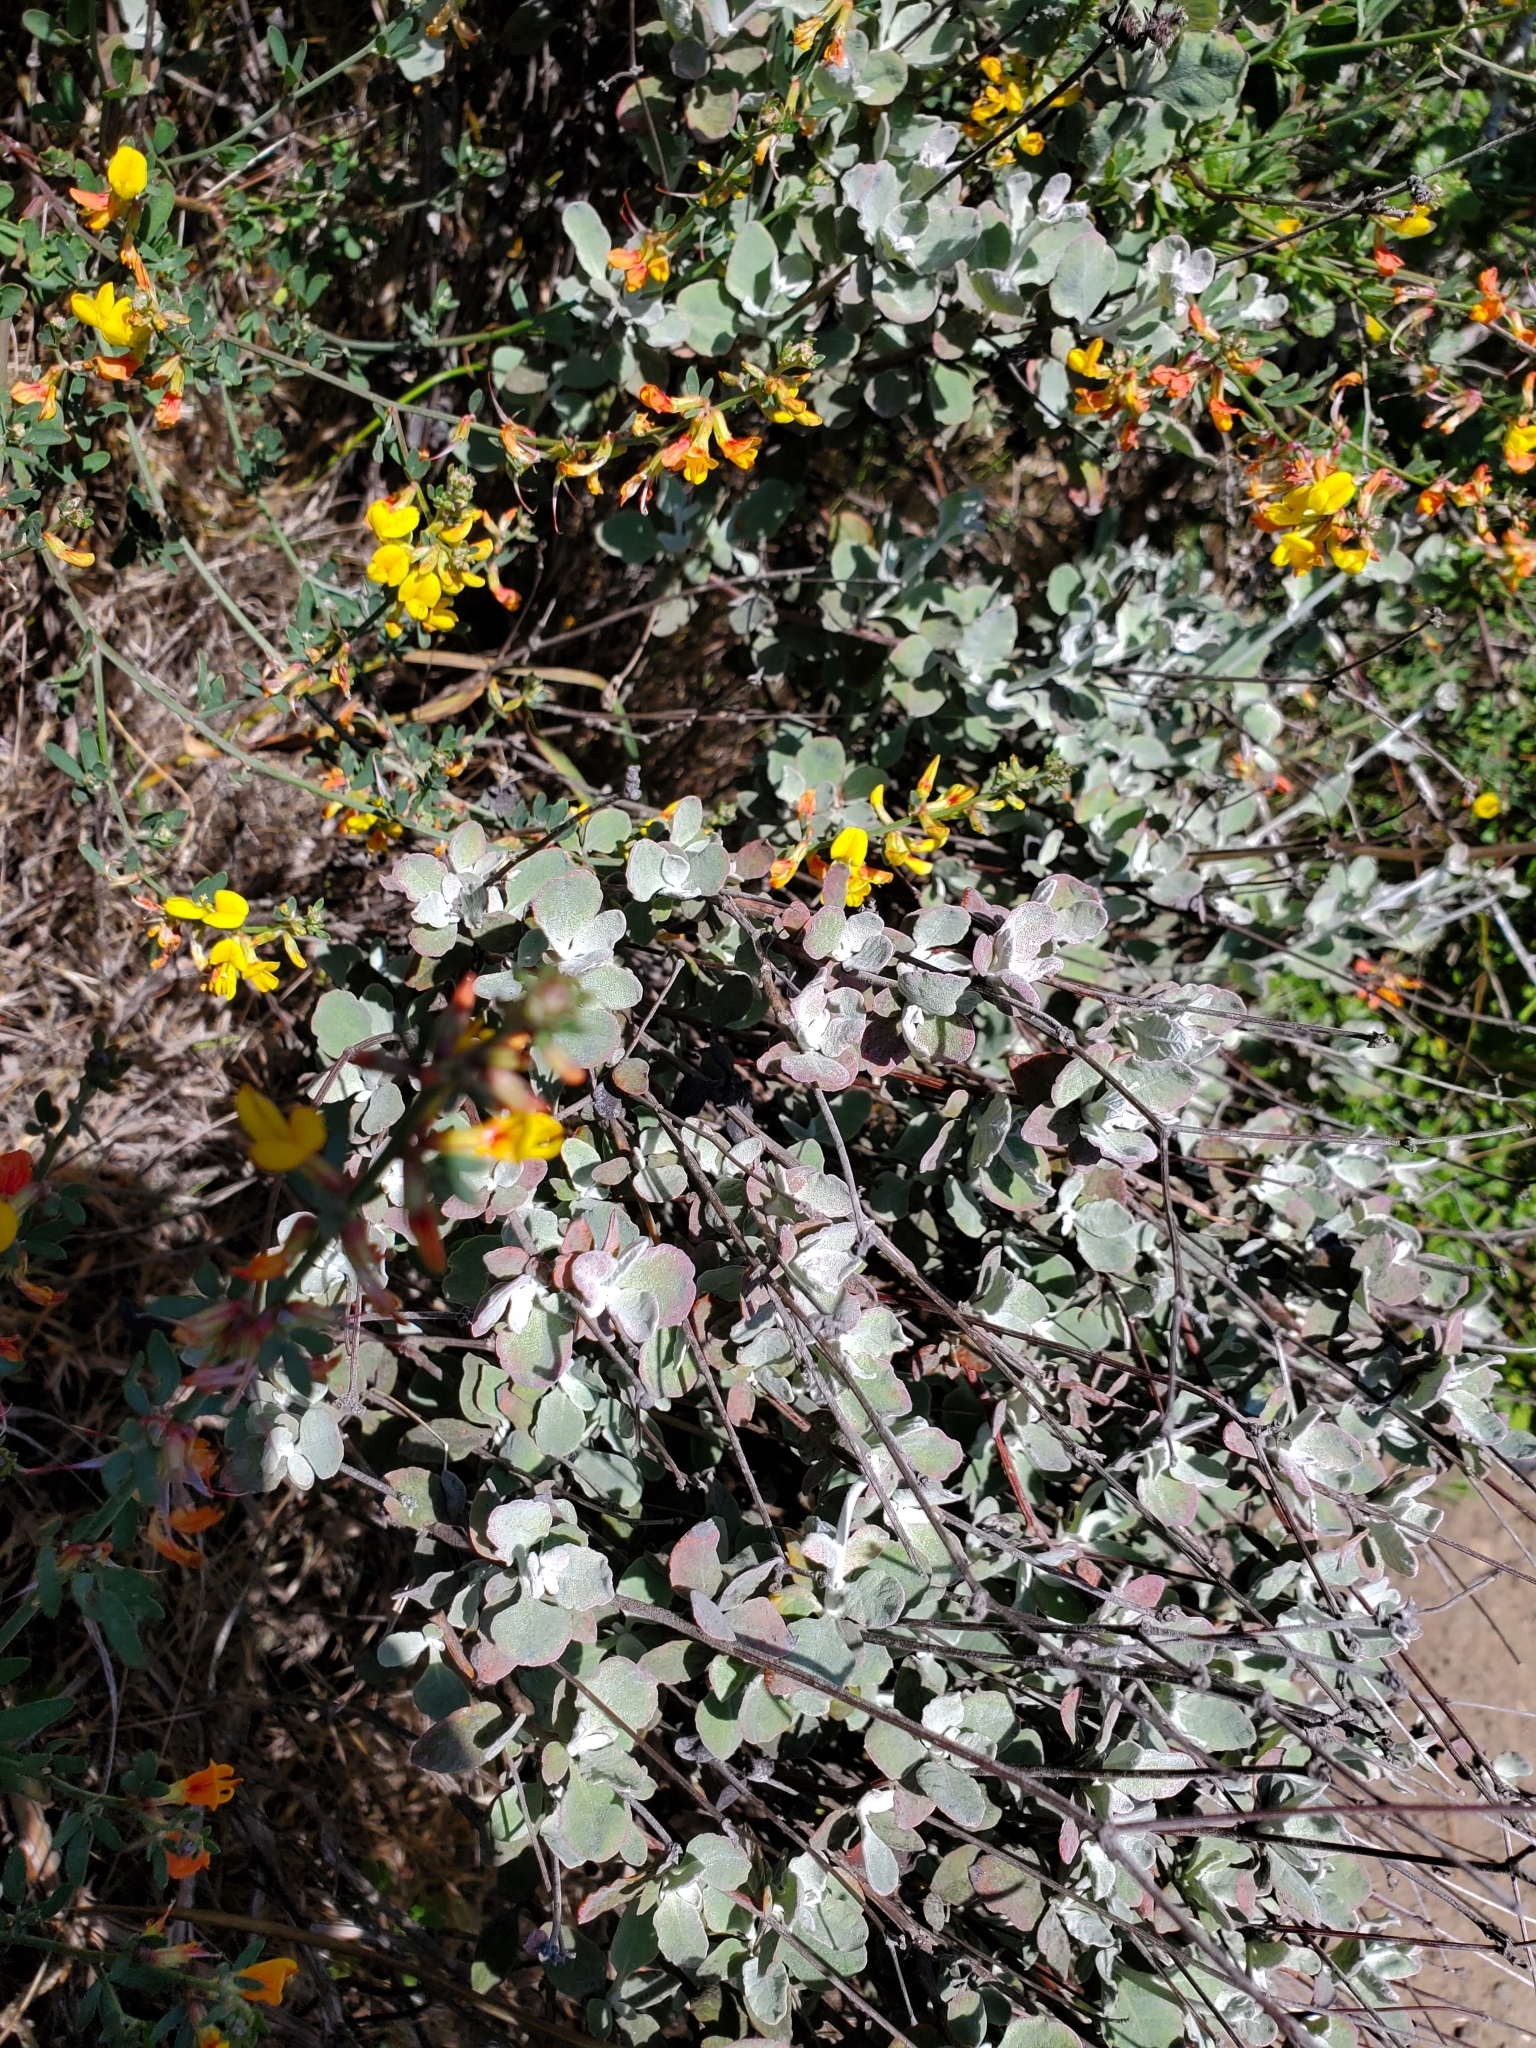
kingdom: Plantae
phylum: Tracheophyta
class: Magnoliopsida
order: Caryophyllales
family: Polygonaceae
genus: Eriogonum
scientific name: Eriogonum cinereum
